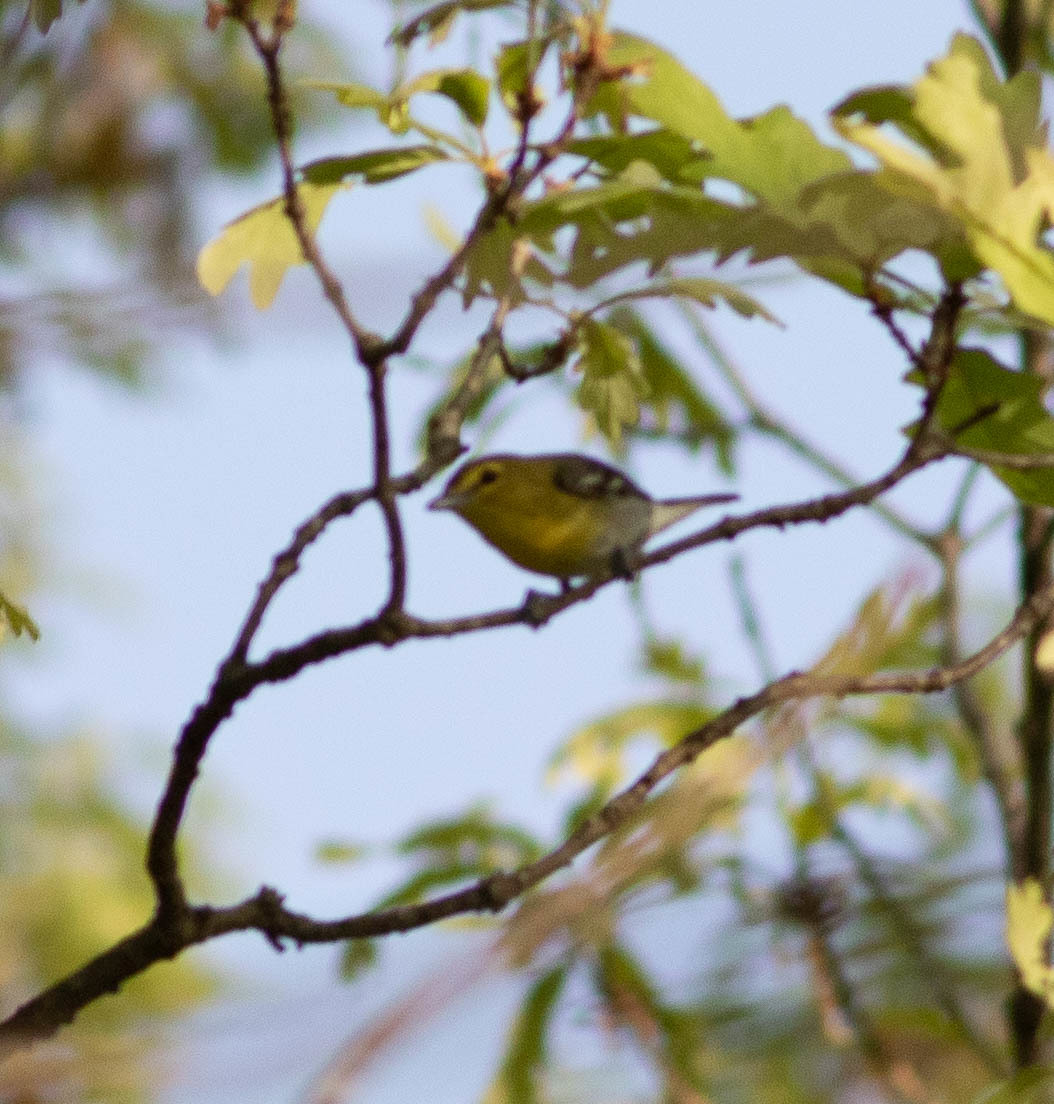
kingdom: Animalia
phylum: Chordata
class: Aves
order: Passeriformes
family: Vireonidae
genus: Vireo
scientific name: Vireo flavifrons
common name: Yellow-throated vireo
